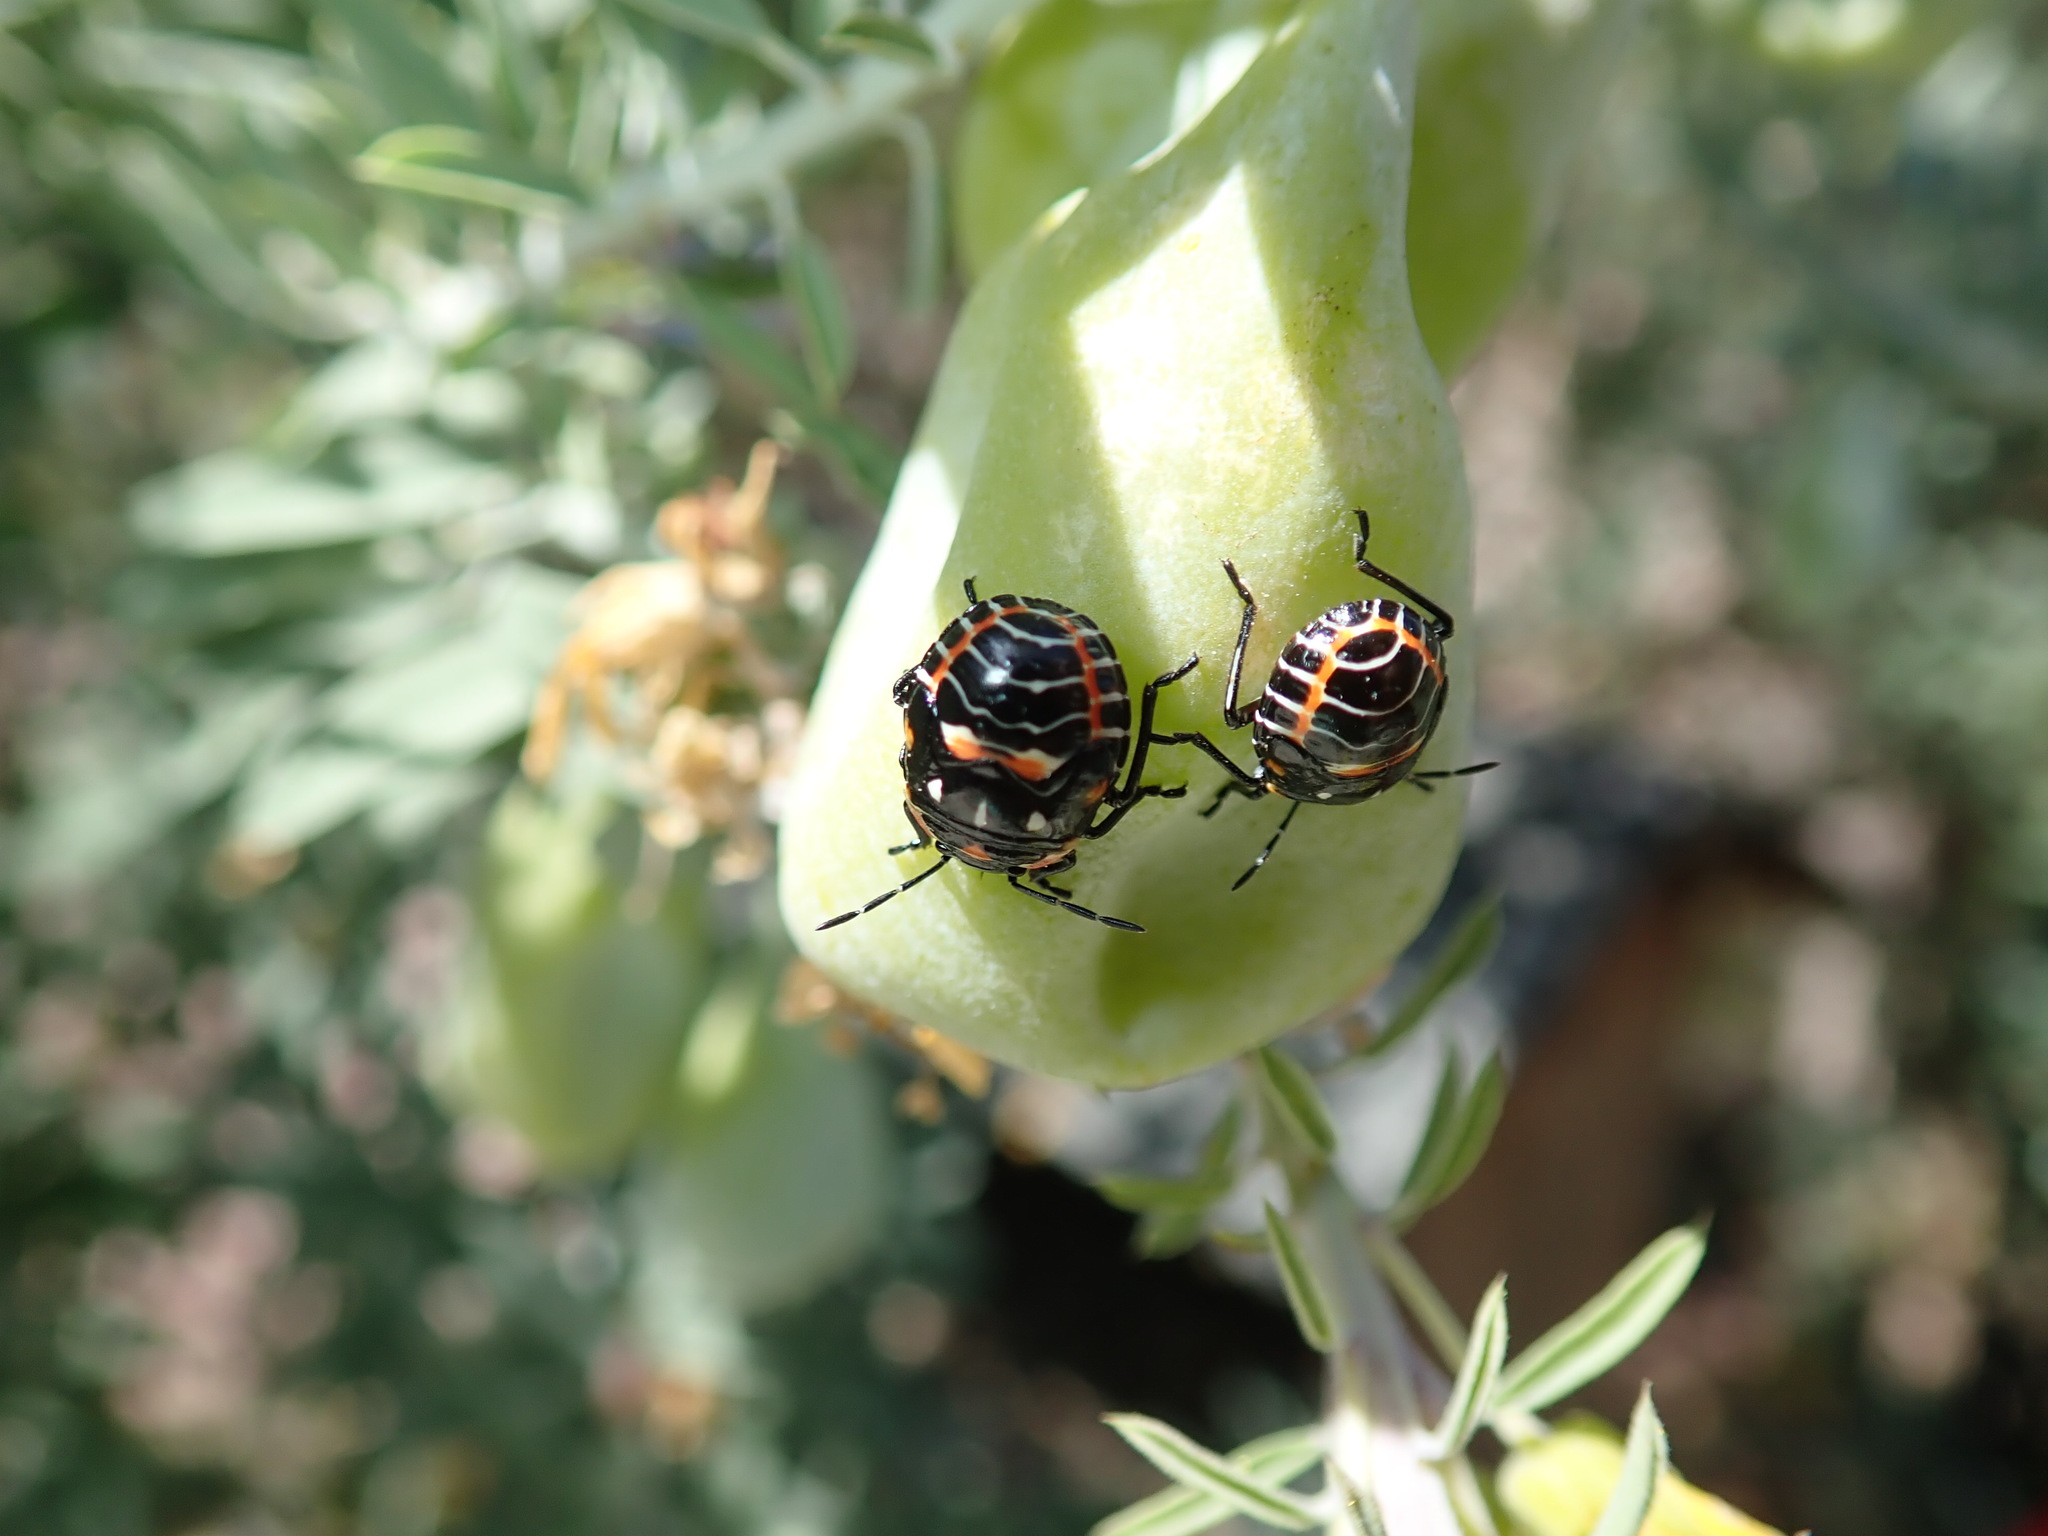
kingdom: Animalia
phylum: Arthropoda
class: Insecta
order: Hemiptera
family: Pentatomidae
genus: Murgantia
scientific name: Murgantia histrionica
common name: Harlequin bug
